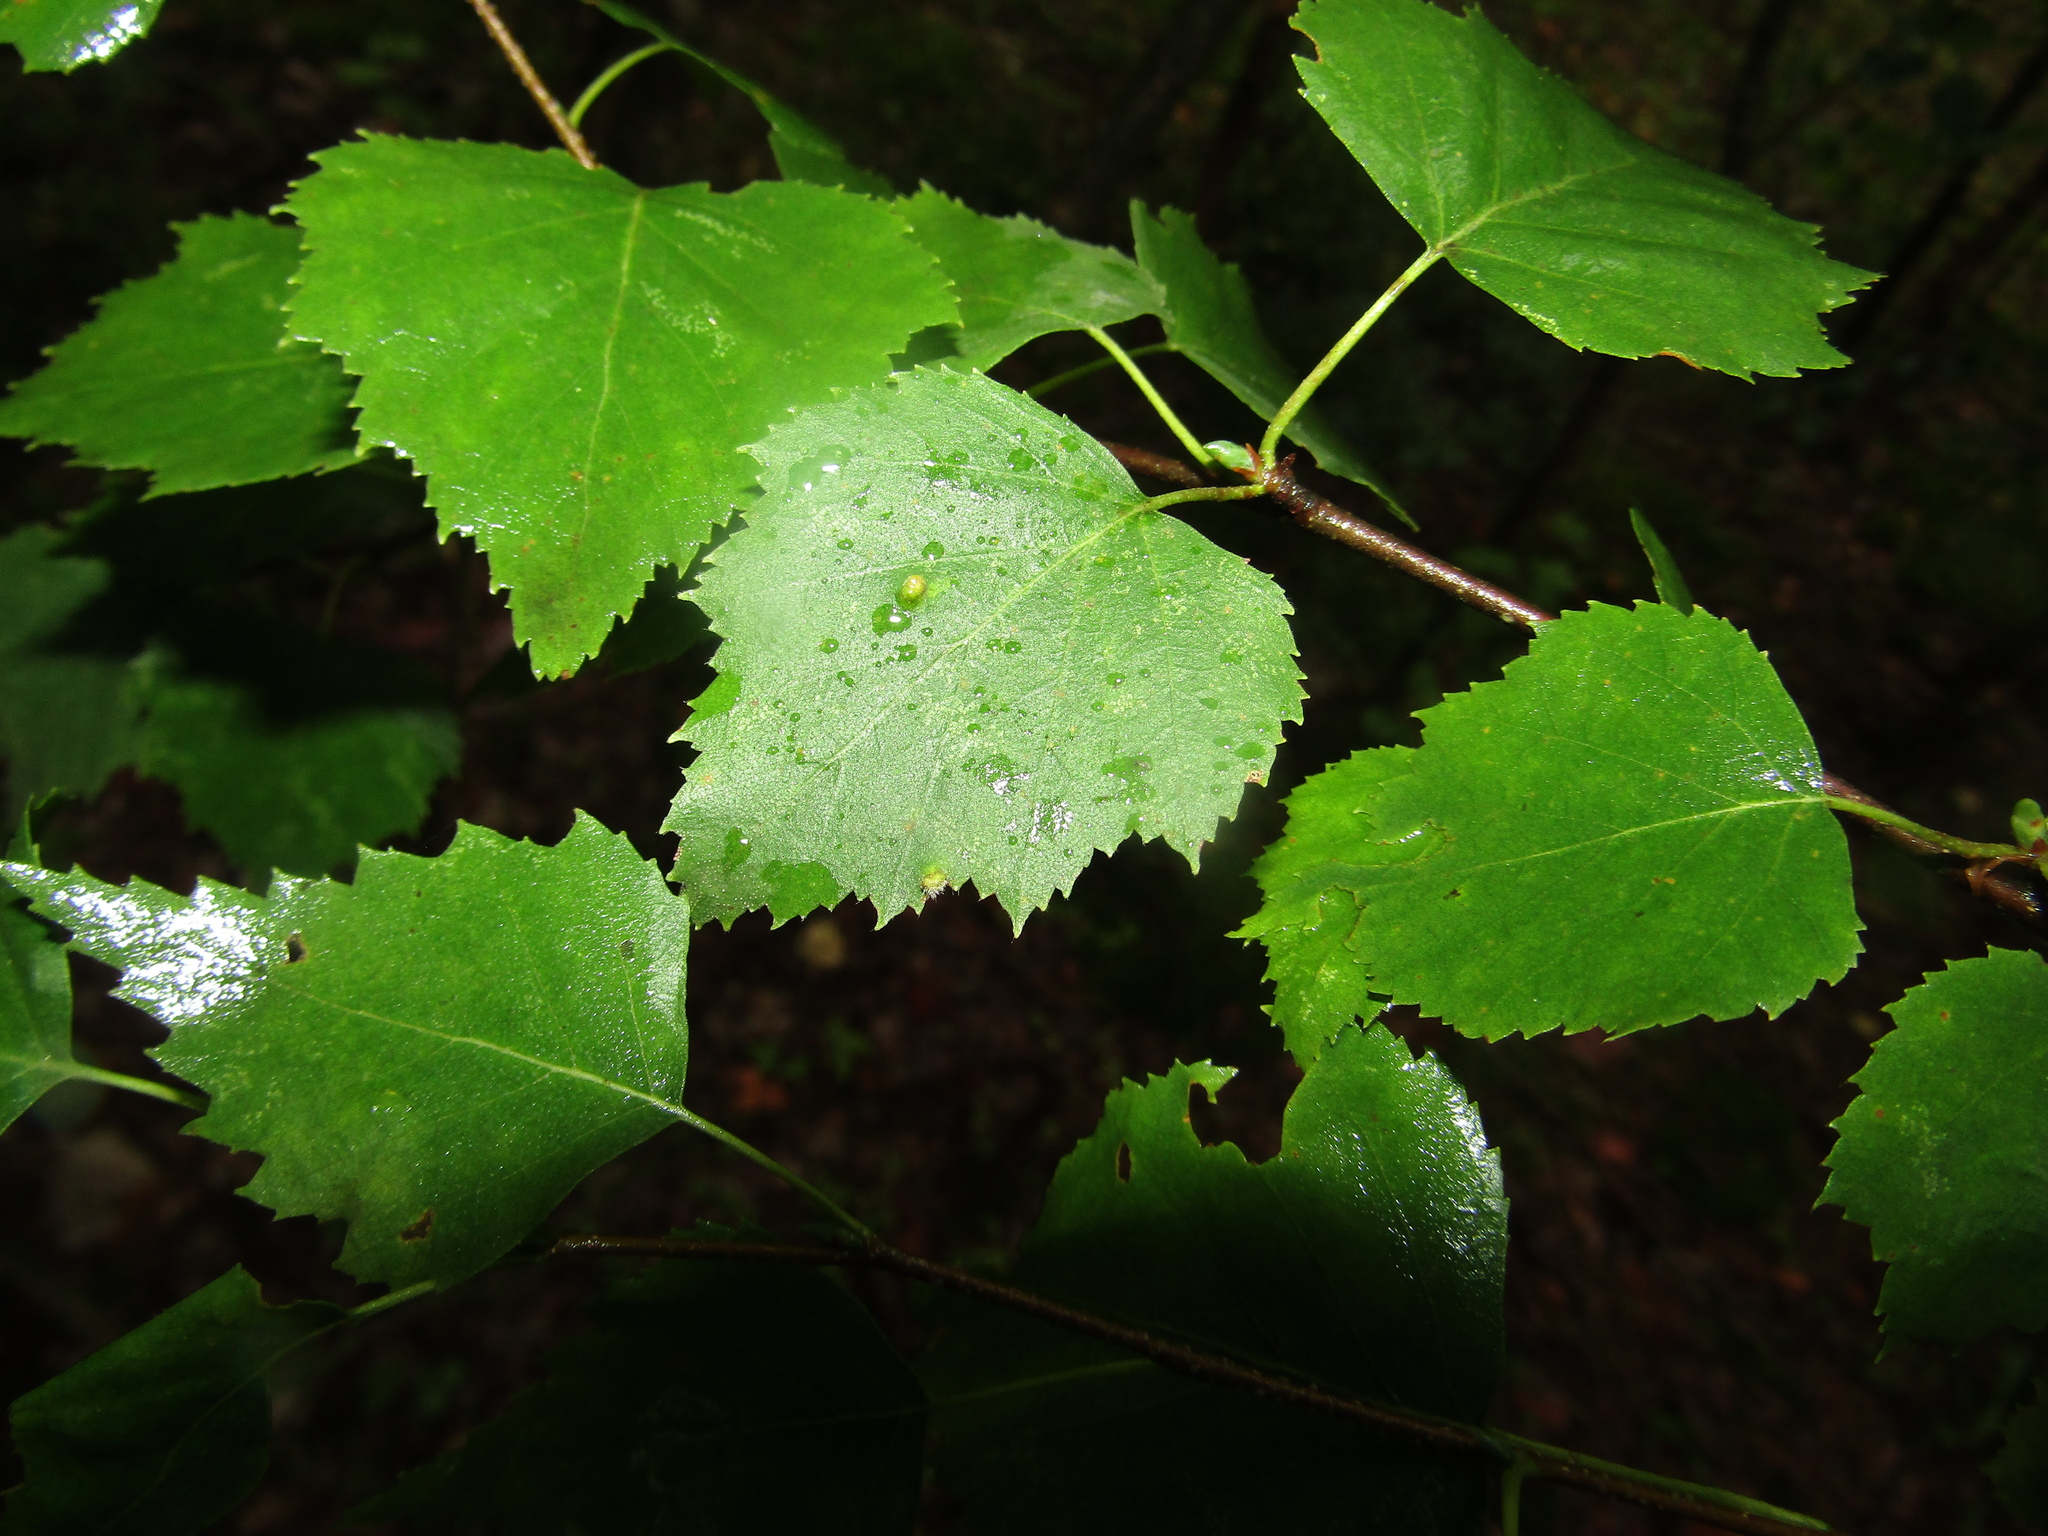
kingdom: Plantae
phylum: Tracheophyta
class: Magnoliopsida
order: Fagales
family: Betulaceae
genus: Betula
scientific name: Betula pendula
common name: Silver birch
